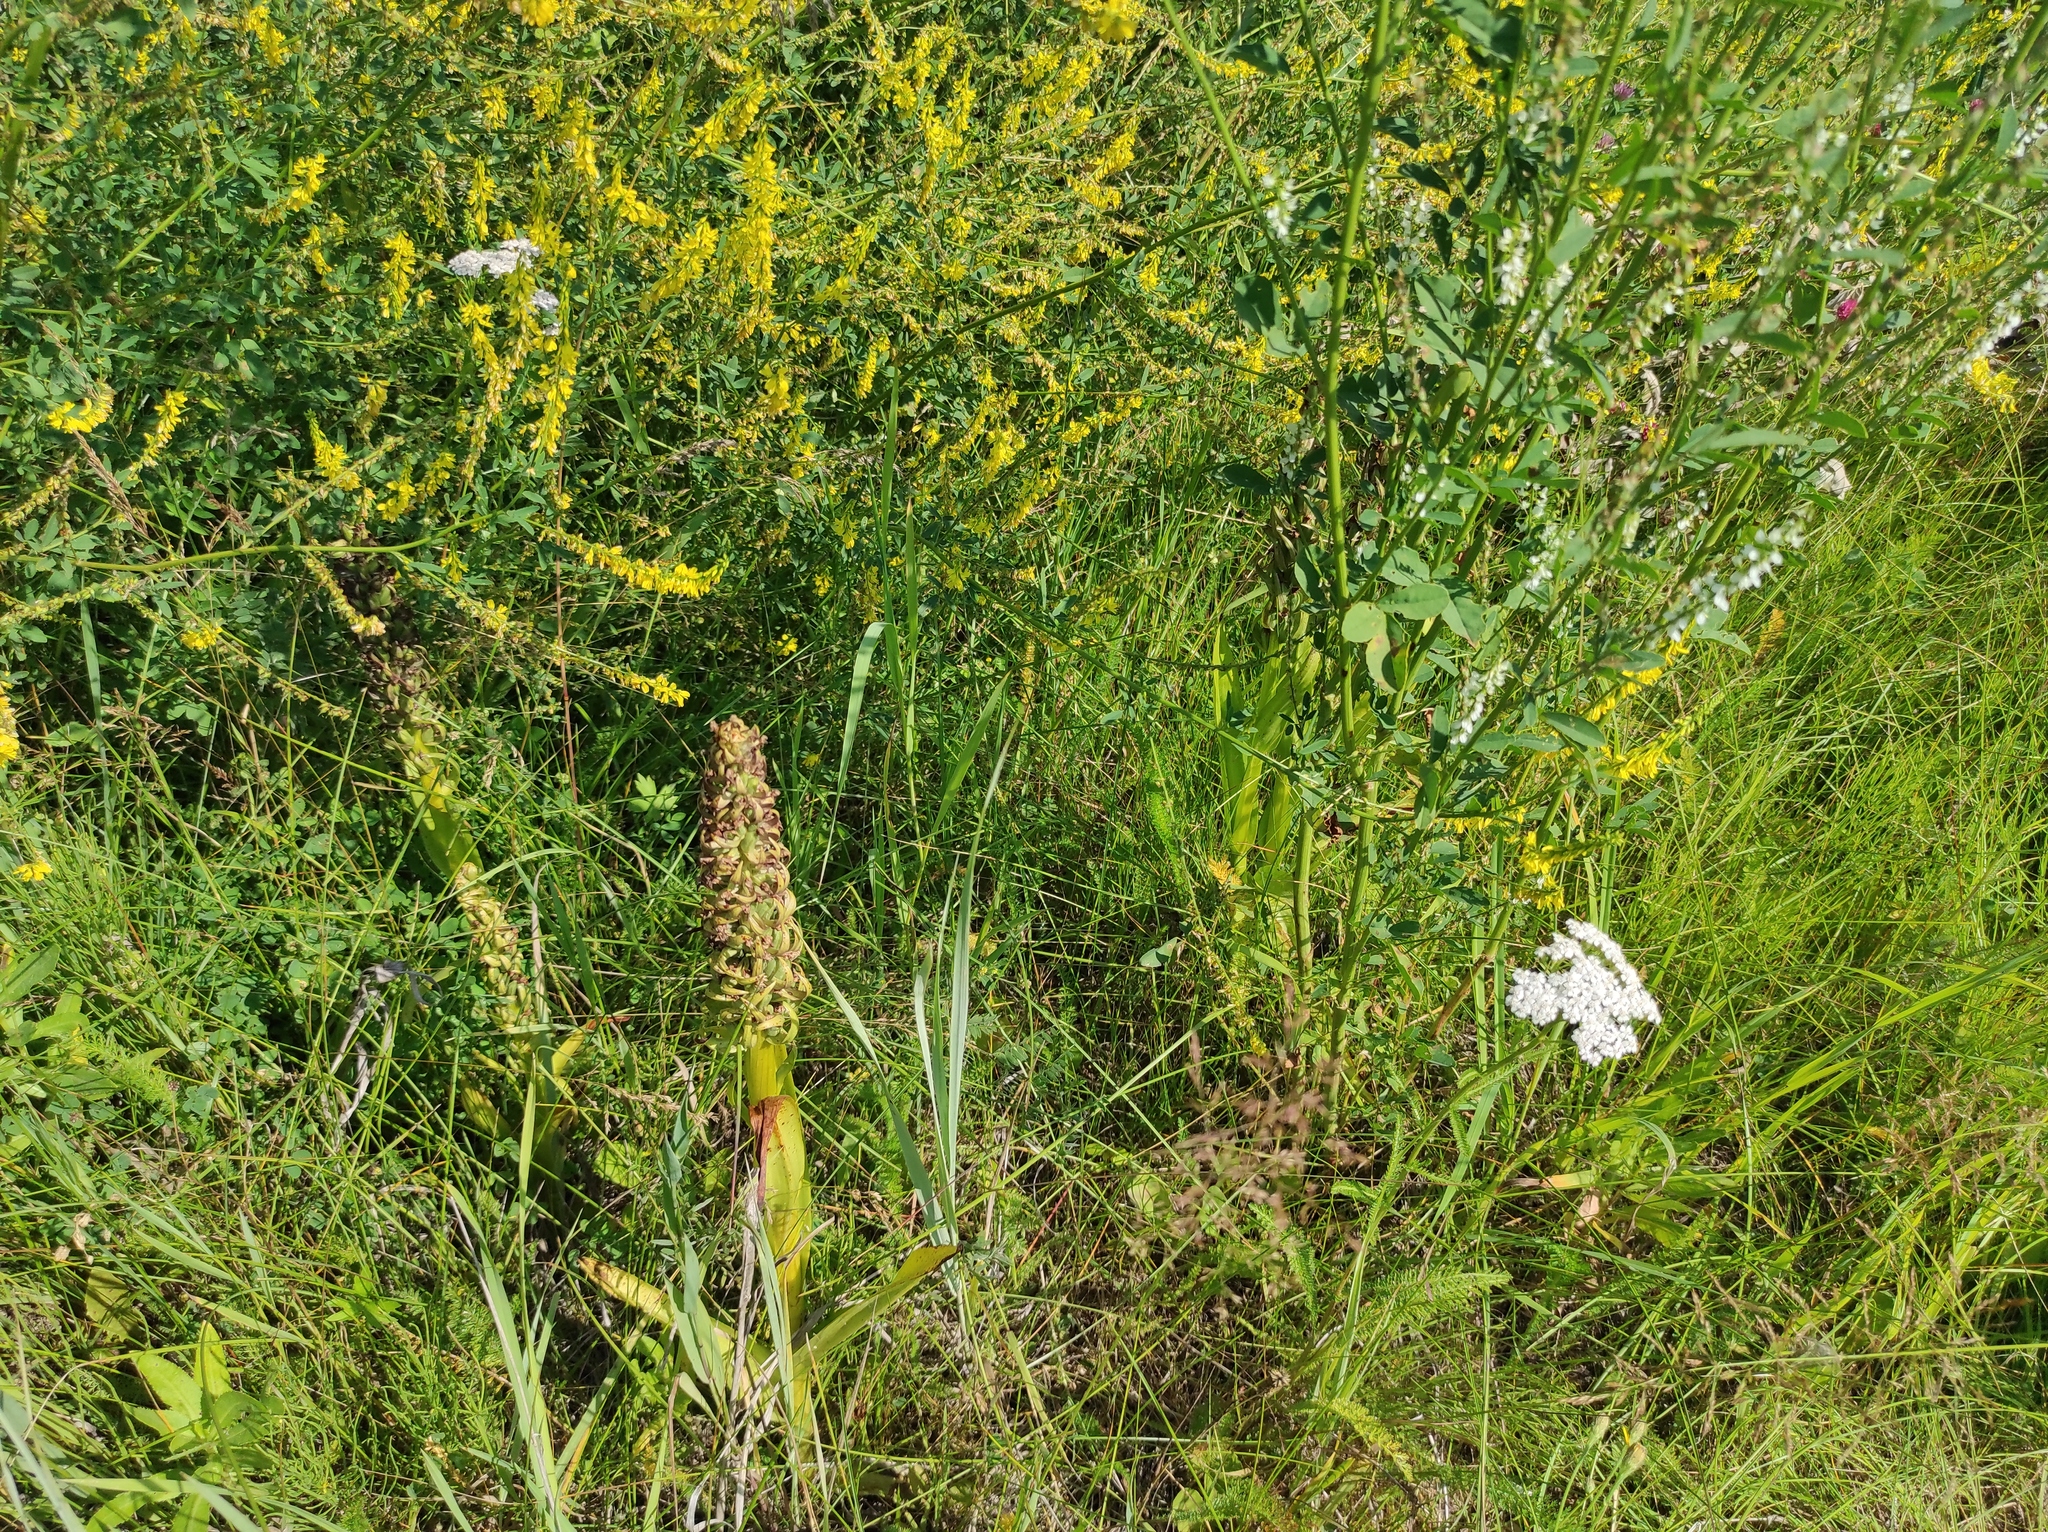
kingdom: Plantae
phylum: Tracheophyta
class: Liliopsida
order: Asparagales
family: Orchidaceae
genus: Dactylorhiza
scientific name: Dactylorhiza incarnata
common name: Early marsh-orchid
